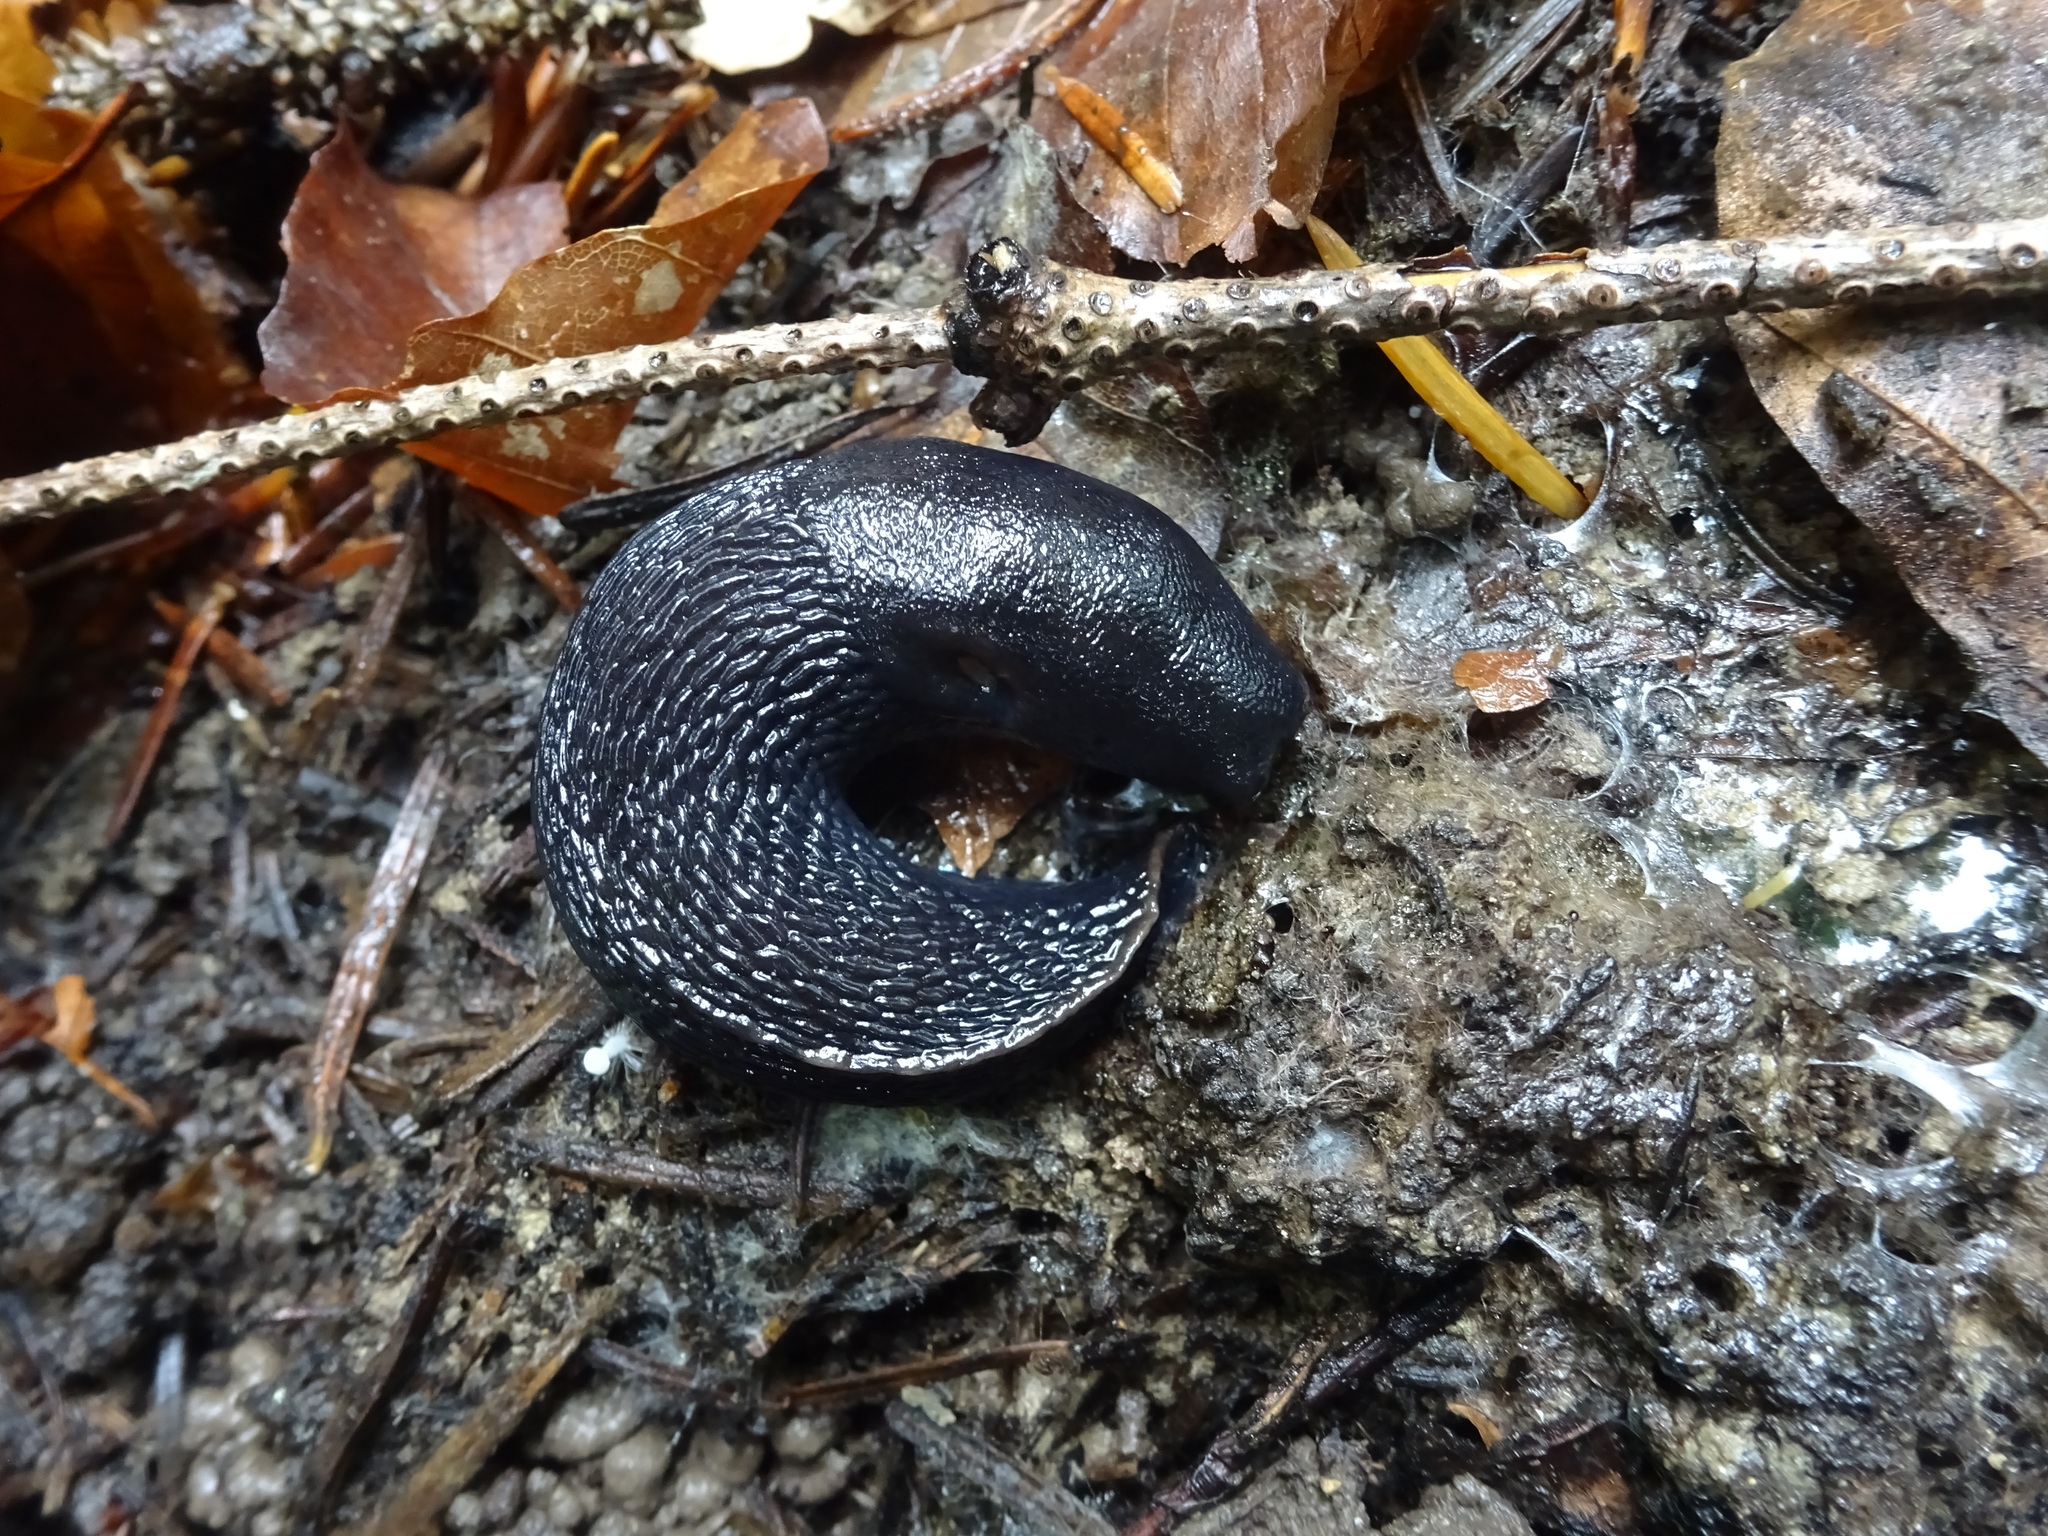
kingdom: Animalia
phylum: Mollusca
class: Gastropoda
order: Stylommatophora
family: Limacidae
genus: Limax
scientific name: Limax cinereoniger
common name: Ash-black slug
